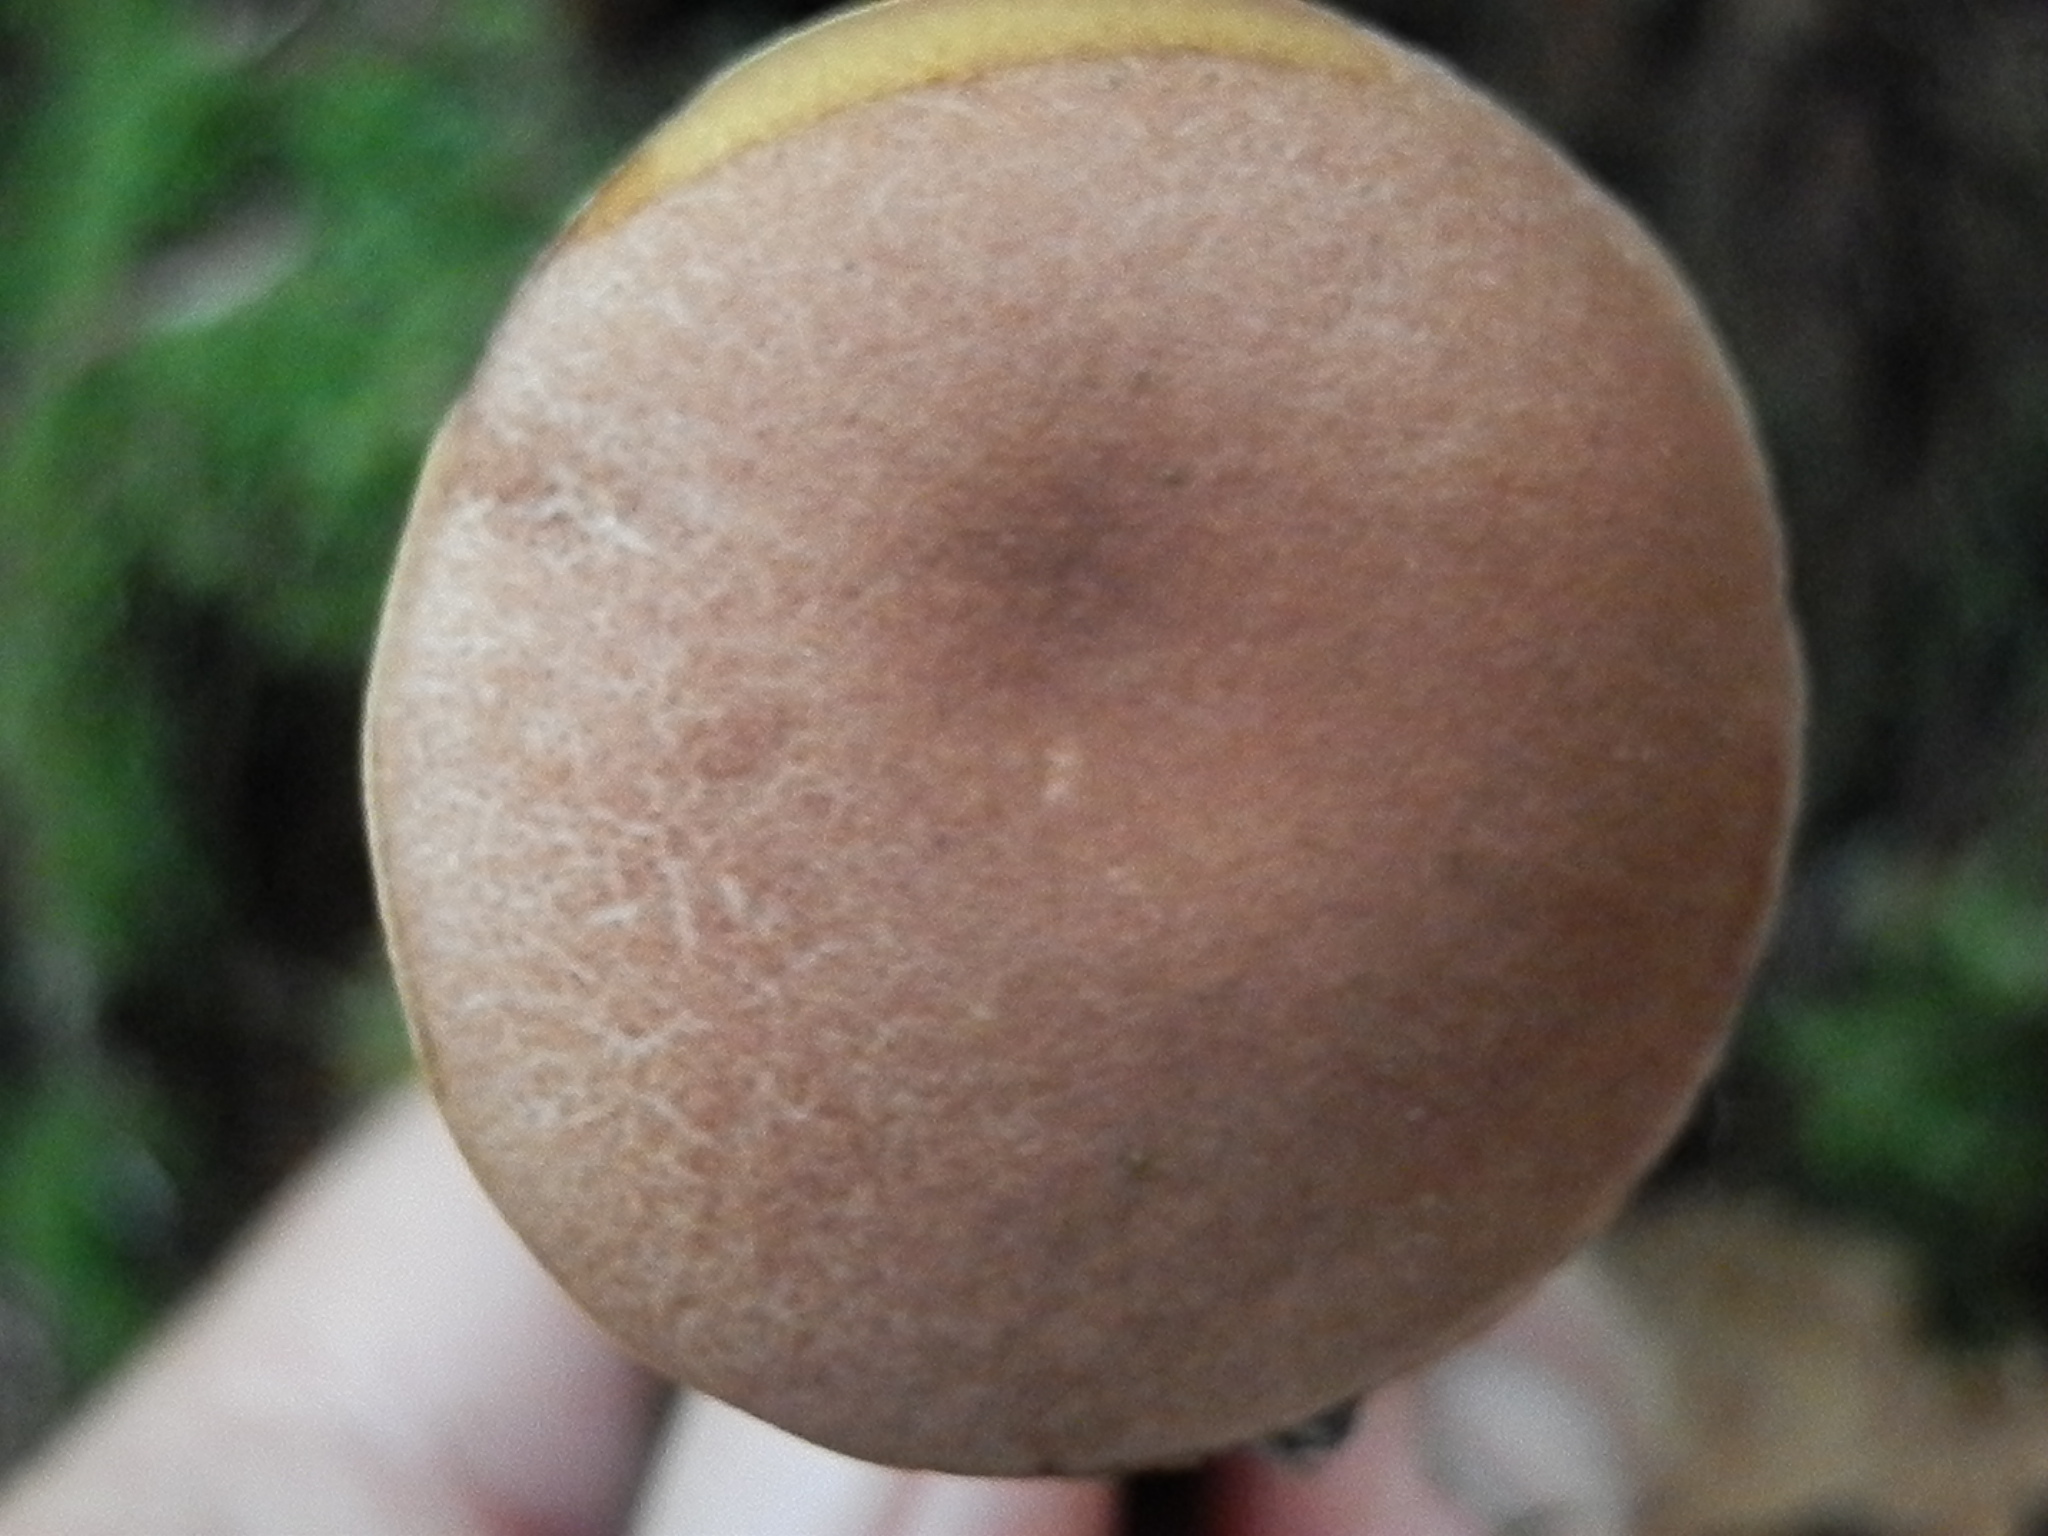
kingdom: Fungi
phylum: Basidiomycota
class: Agaricomycetes
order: Boletales
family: Boletaceae
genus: Austroboletus
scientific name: Austroboletus gracilis
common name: Graceful bolete
